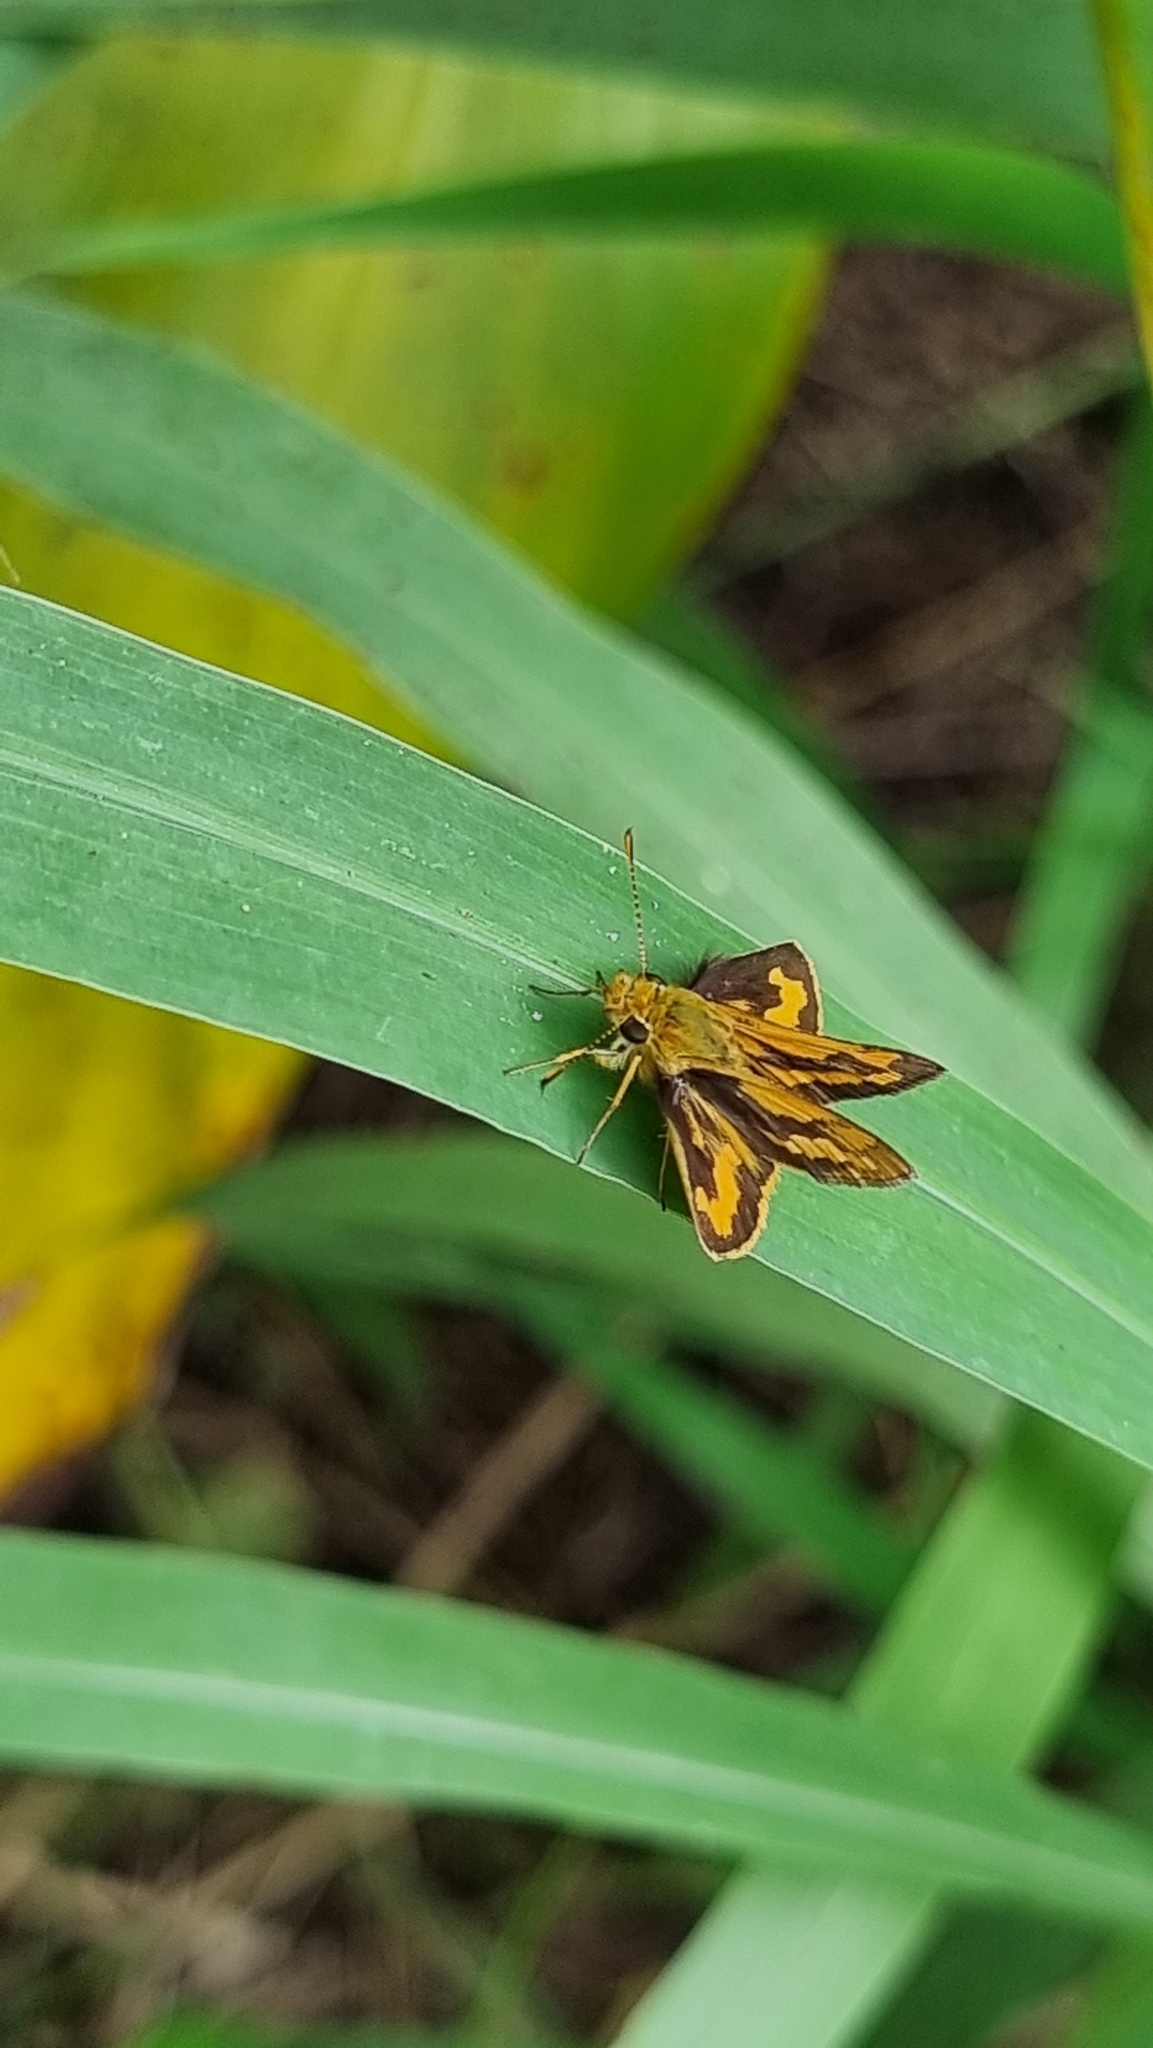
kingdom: Animalia
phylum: Arthropoda
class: Insecta
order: Lepidoptera
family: Hesperiidae
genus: Ocybadistes
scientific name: Ocybadistes walkeri
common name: Yellow-banded dart
